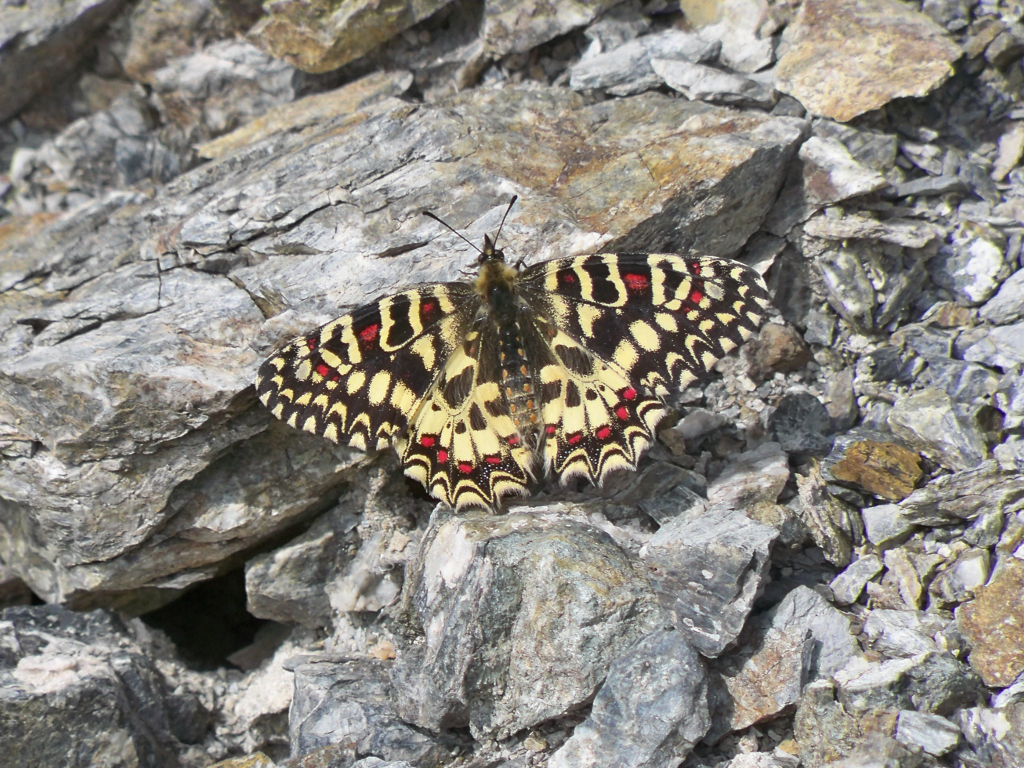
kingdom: Animalia
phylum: Arthropoda
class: Insecta
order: Lepidoptera
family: Papilionidae
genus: Zerynthia
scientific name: Zerynthia rumina
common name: Spanish festoon
